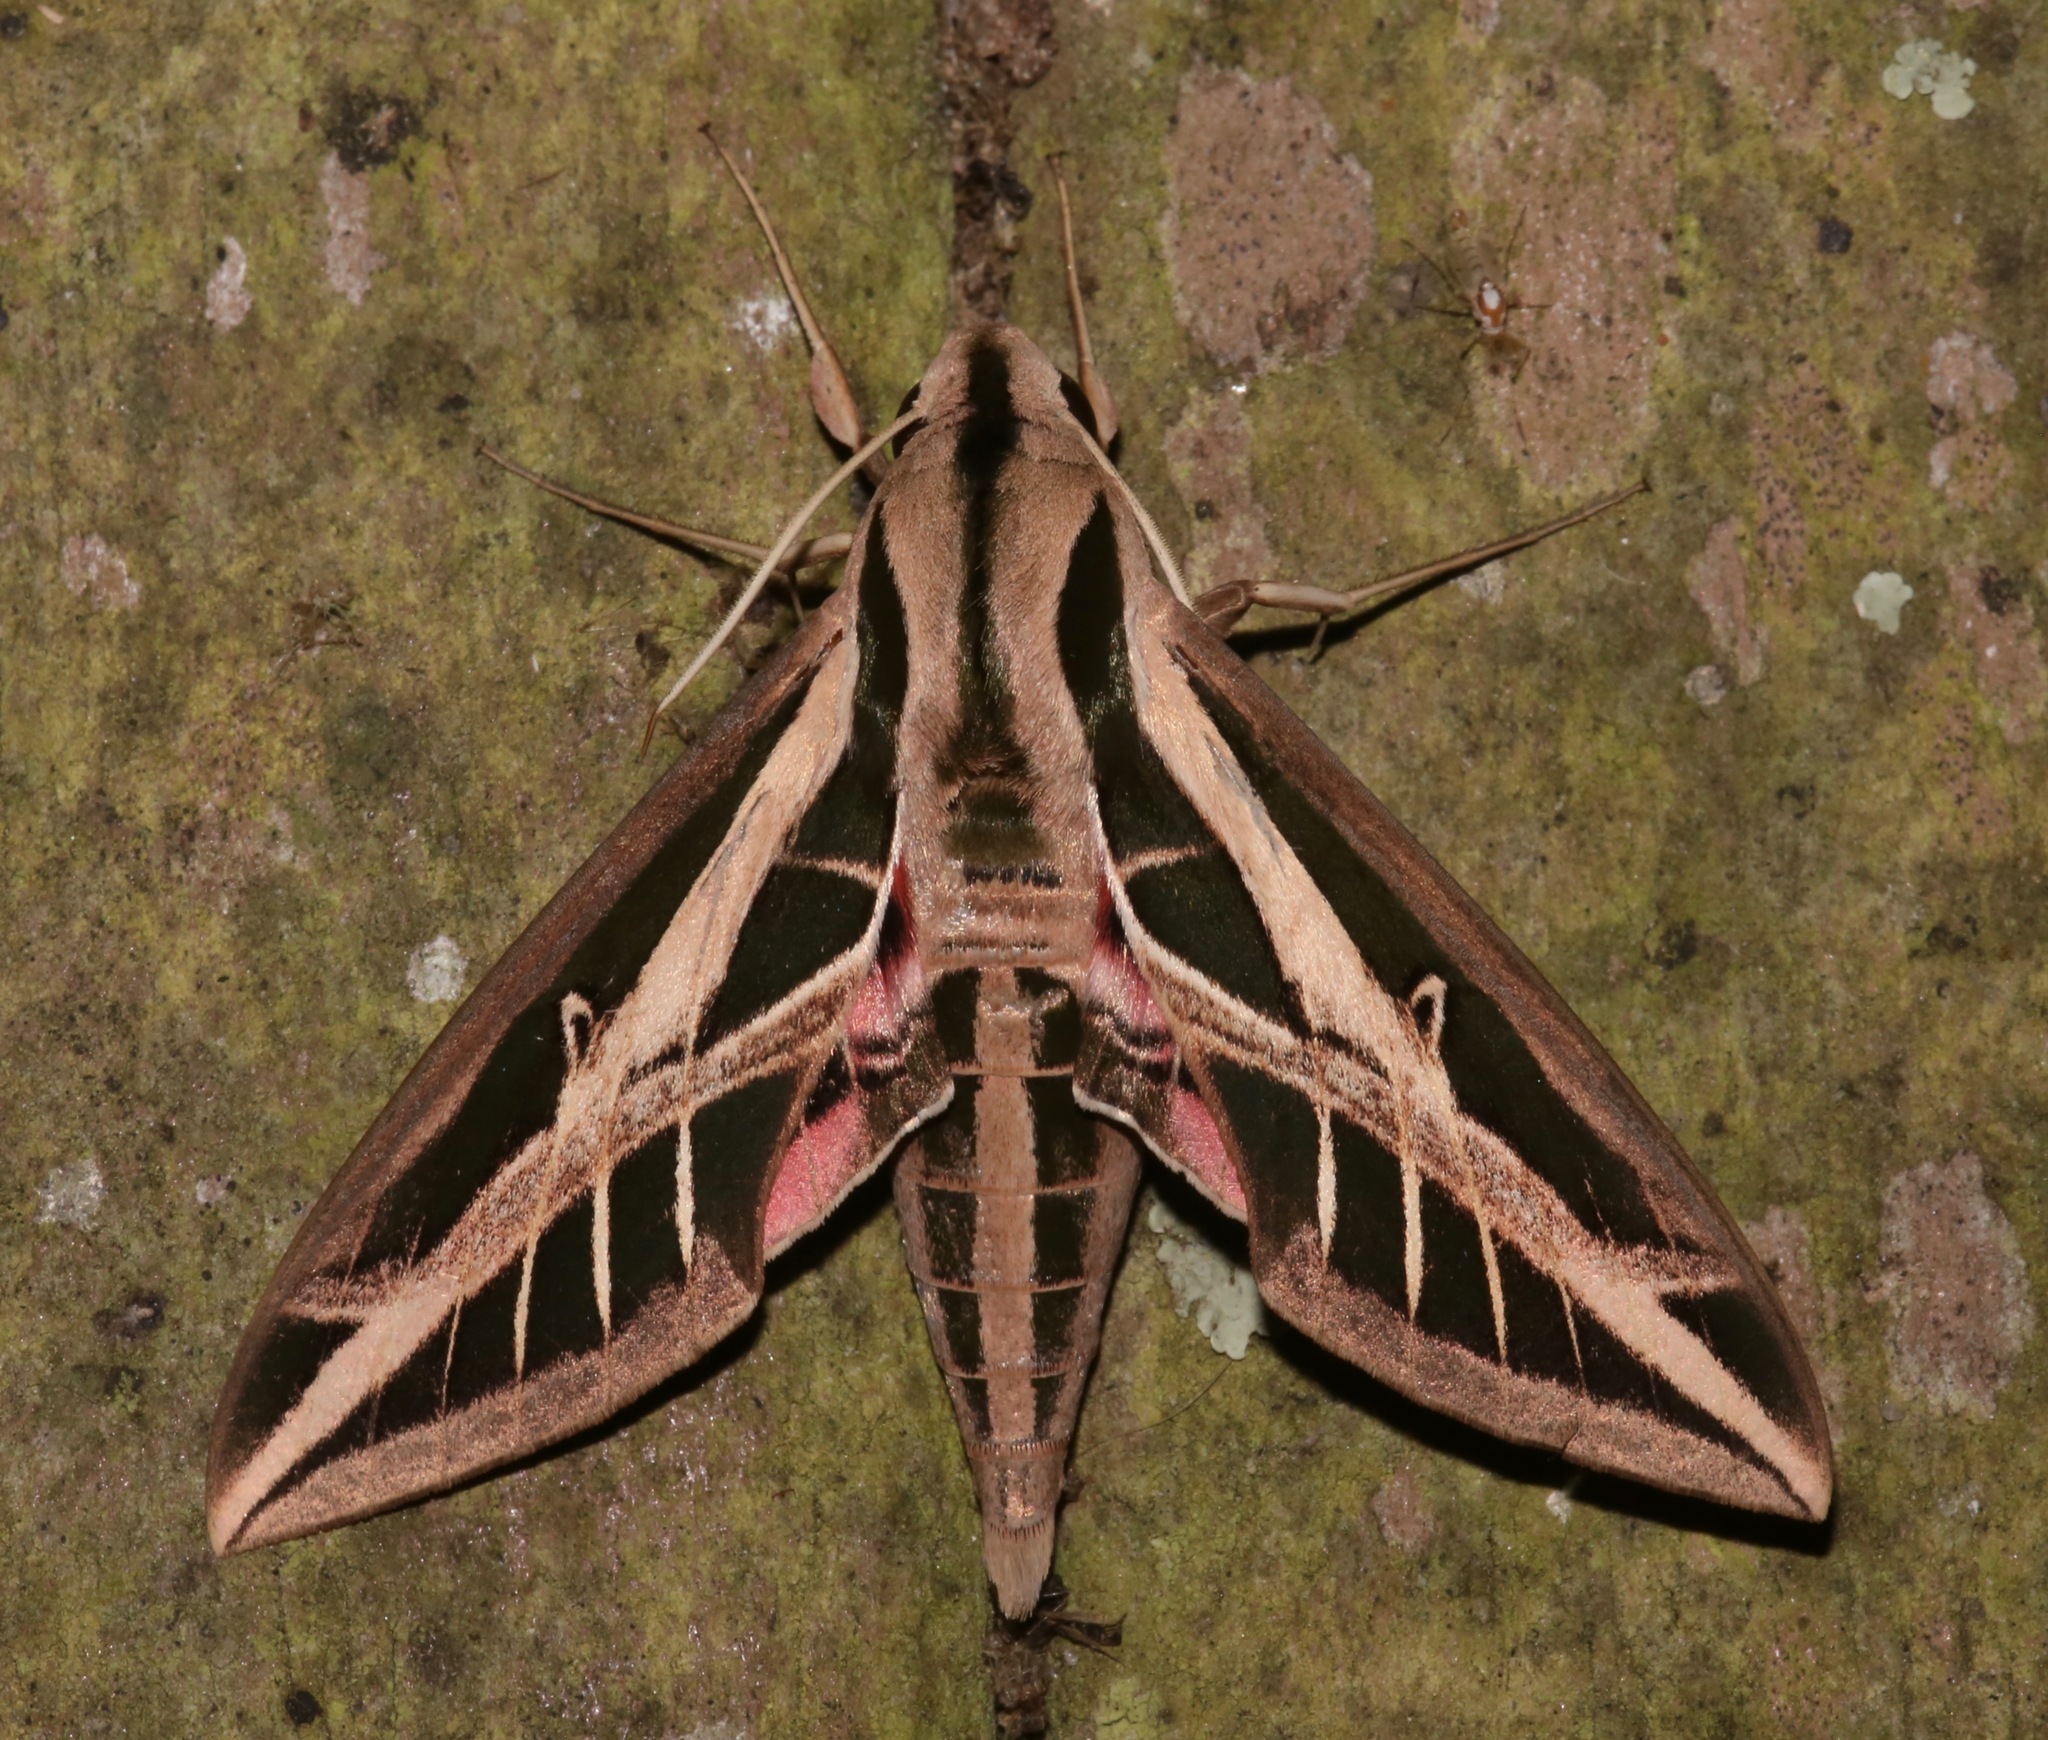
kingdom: Animalia
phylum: Arthropoda
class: Insecta
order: Lepidoptera
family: Sphingidae
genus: Eumorpha
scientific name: Eumorpha fasciatus
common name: Banded sphinx
